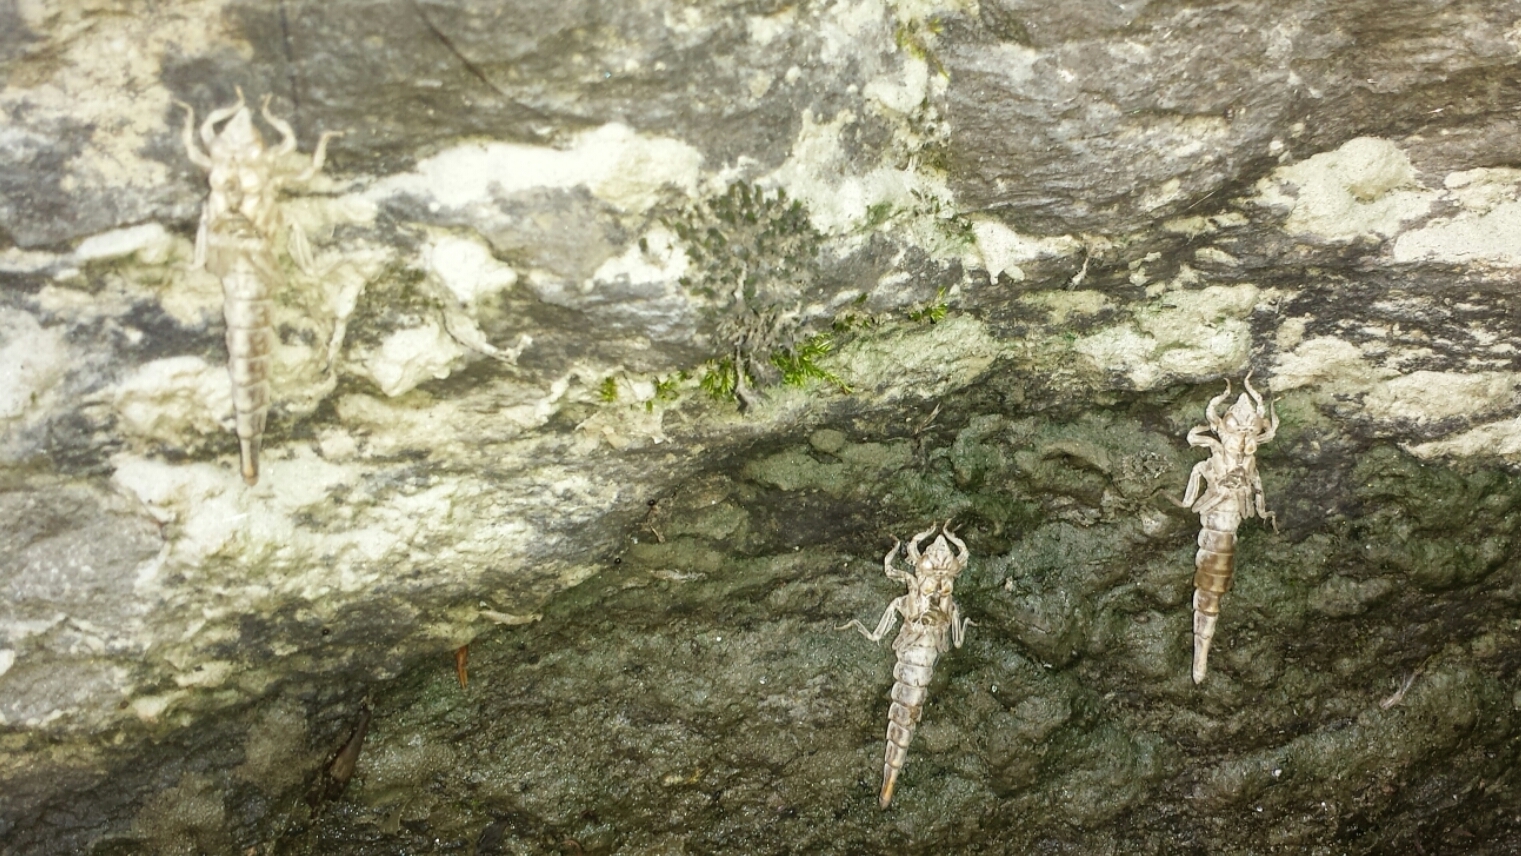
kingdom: Animalia
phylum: Arthropoda
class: Insecta
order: Odonata
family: Gomphidae
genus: Stylurus
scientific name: Stylurus spiniceps
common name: Arrow clubtail
